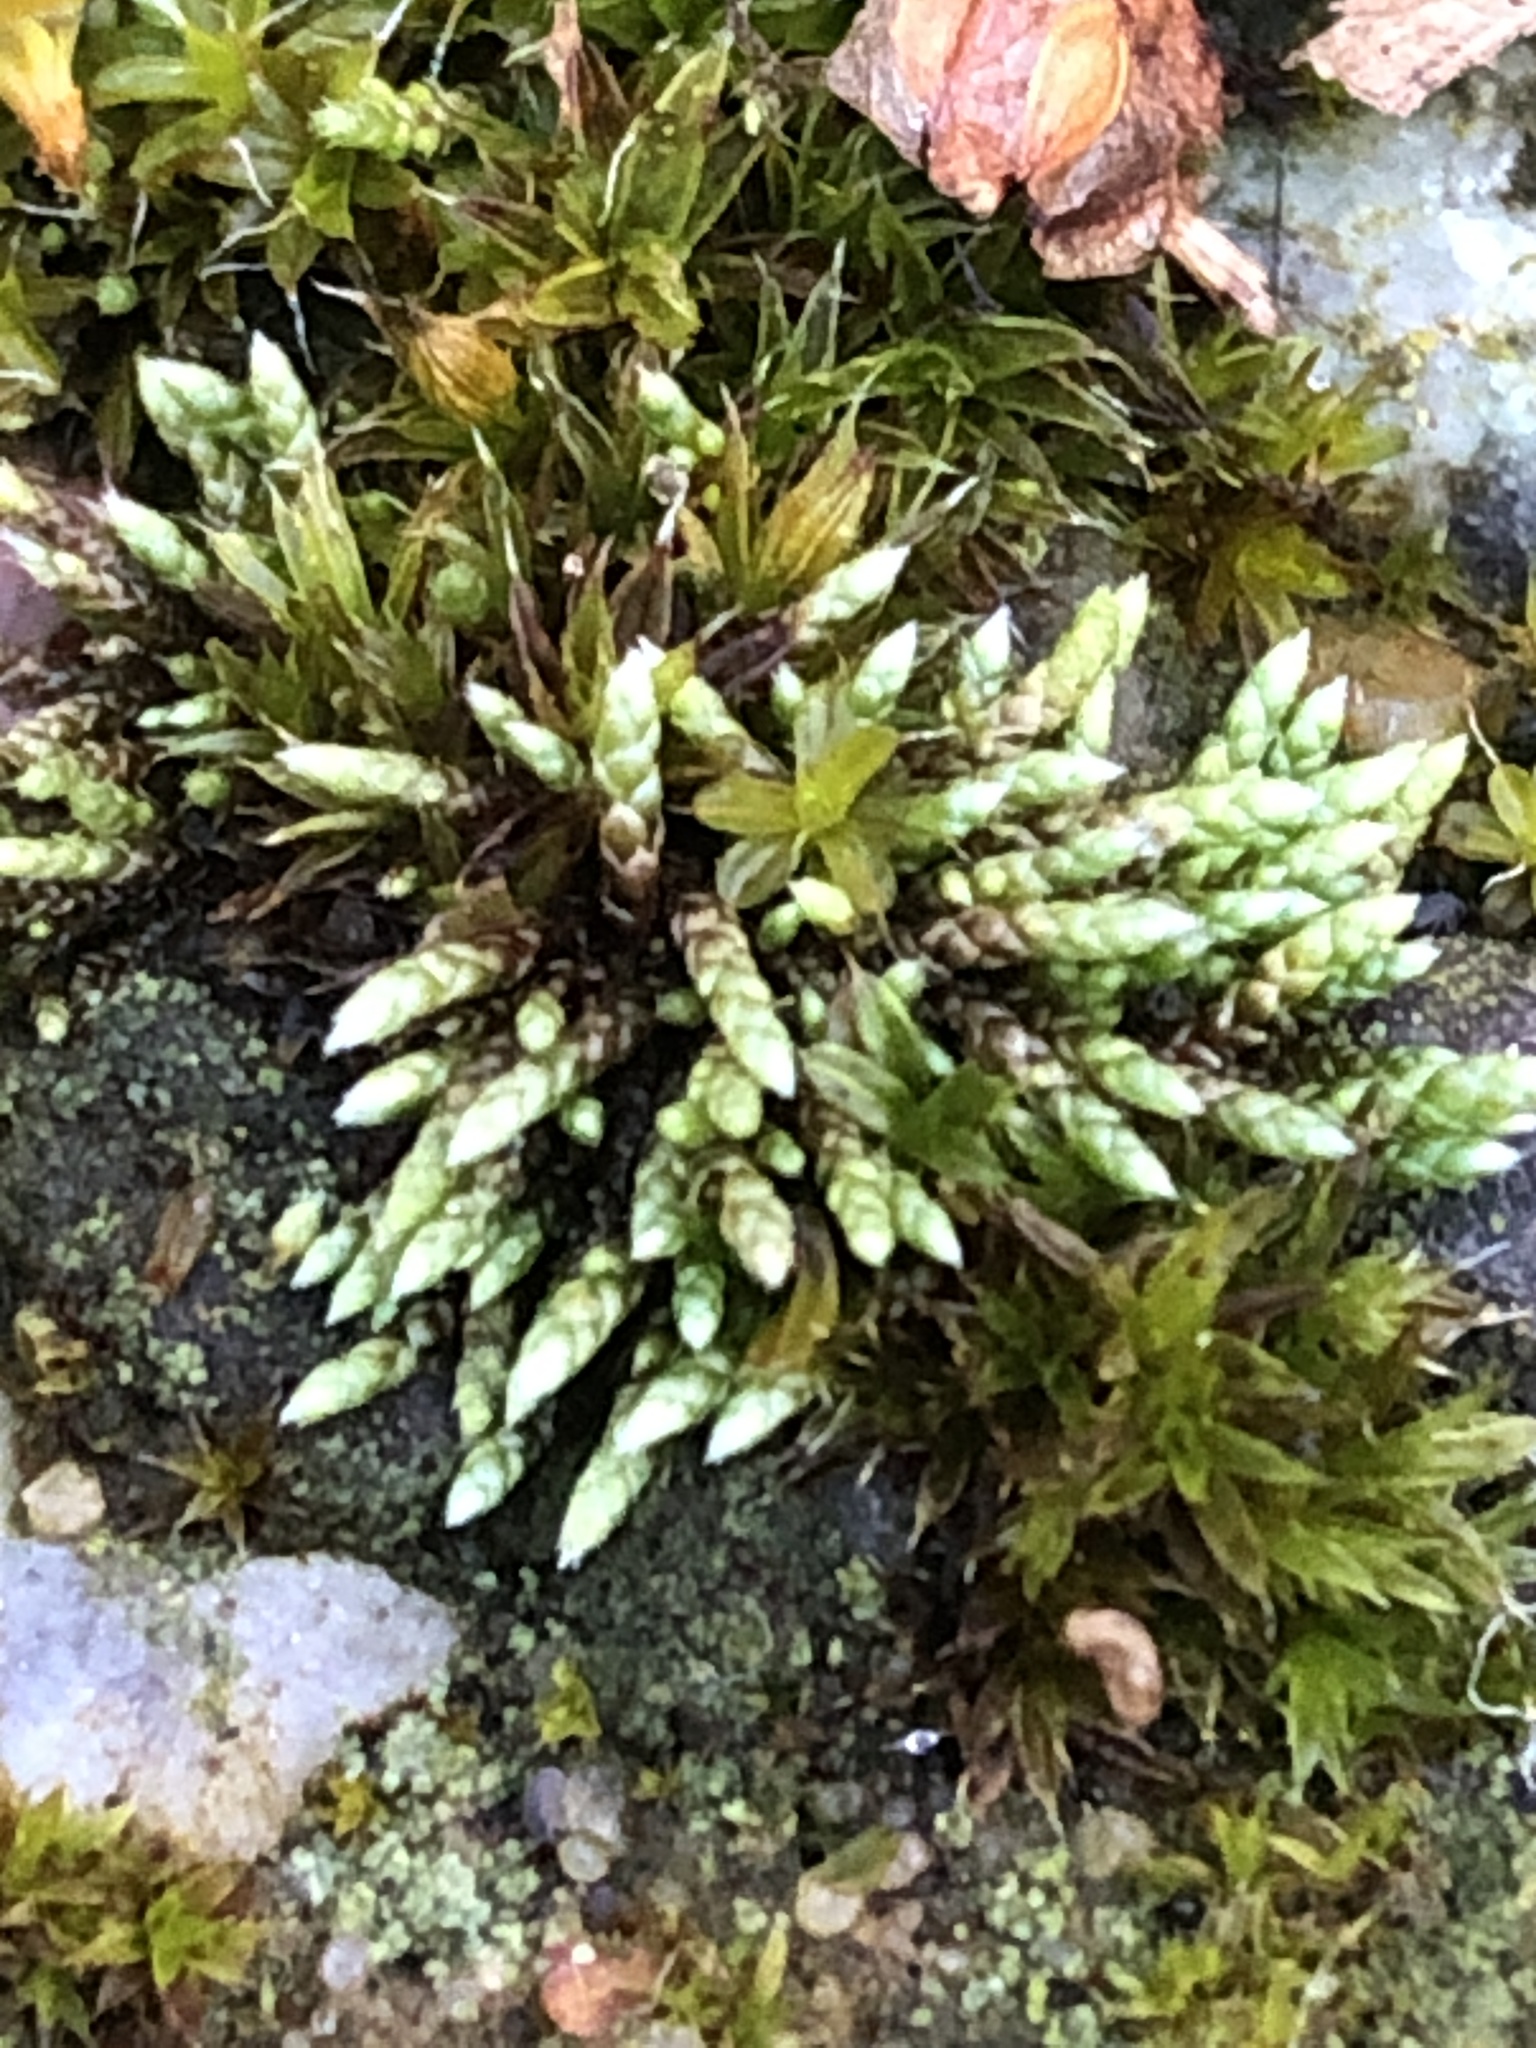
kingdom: Plantae
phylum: Bryophyta
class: Bryopsida
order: Bryales
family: Bryaceae
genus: Bryum
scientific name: Bryum argenteum
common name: Silver-moss
